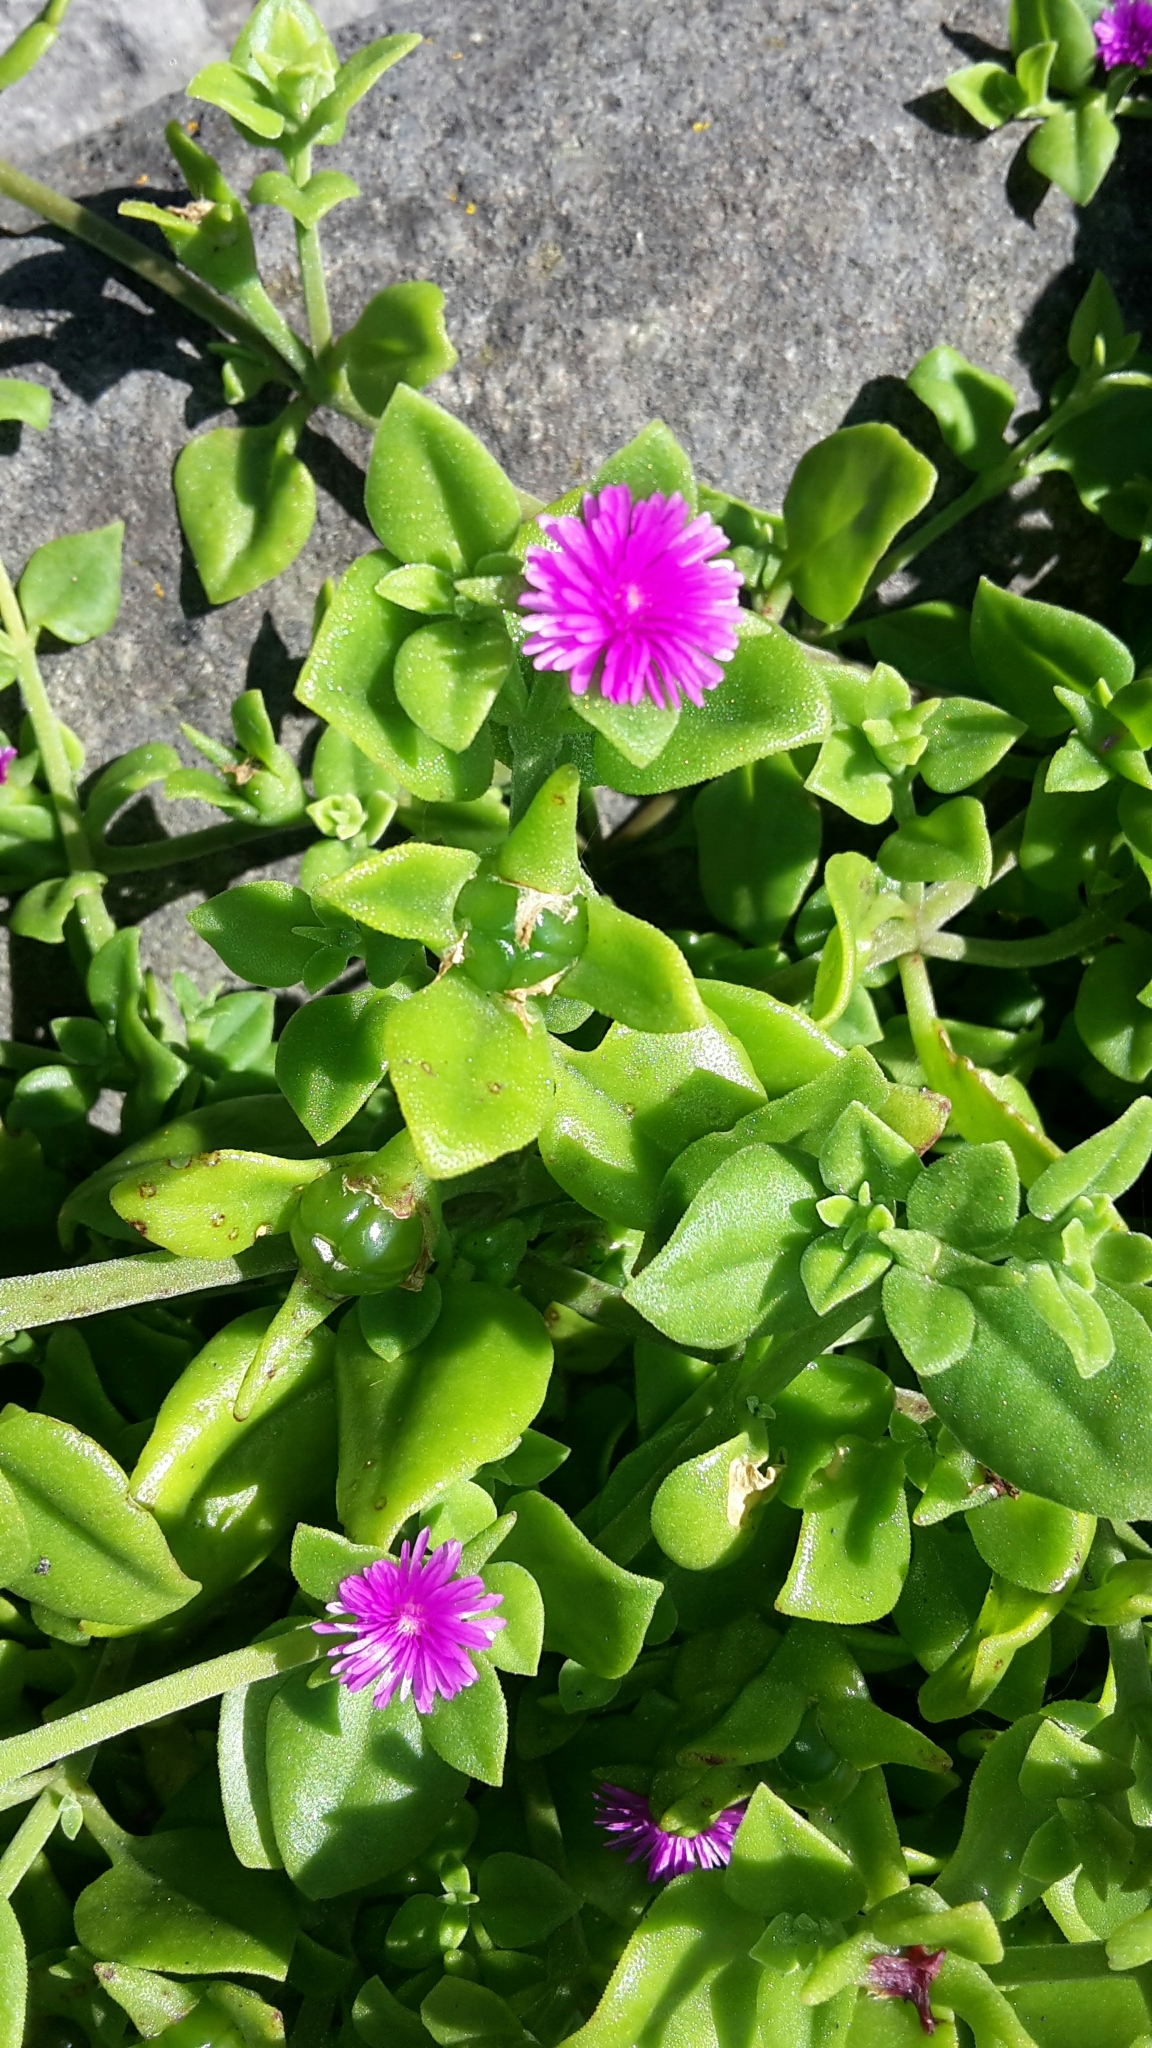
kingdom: Plantae
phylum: Tracheophyta
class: Magnoliopsida
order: Caryophyllales
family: Aizoaceae
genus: Mesembryanthemum
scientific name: Mesembryanthemum cordifolium
